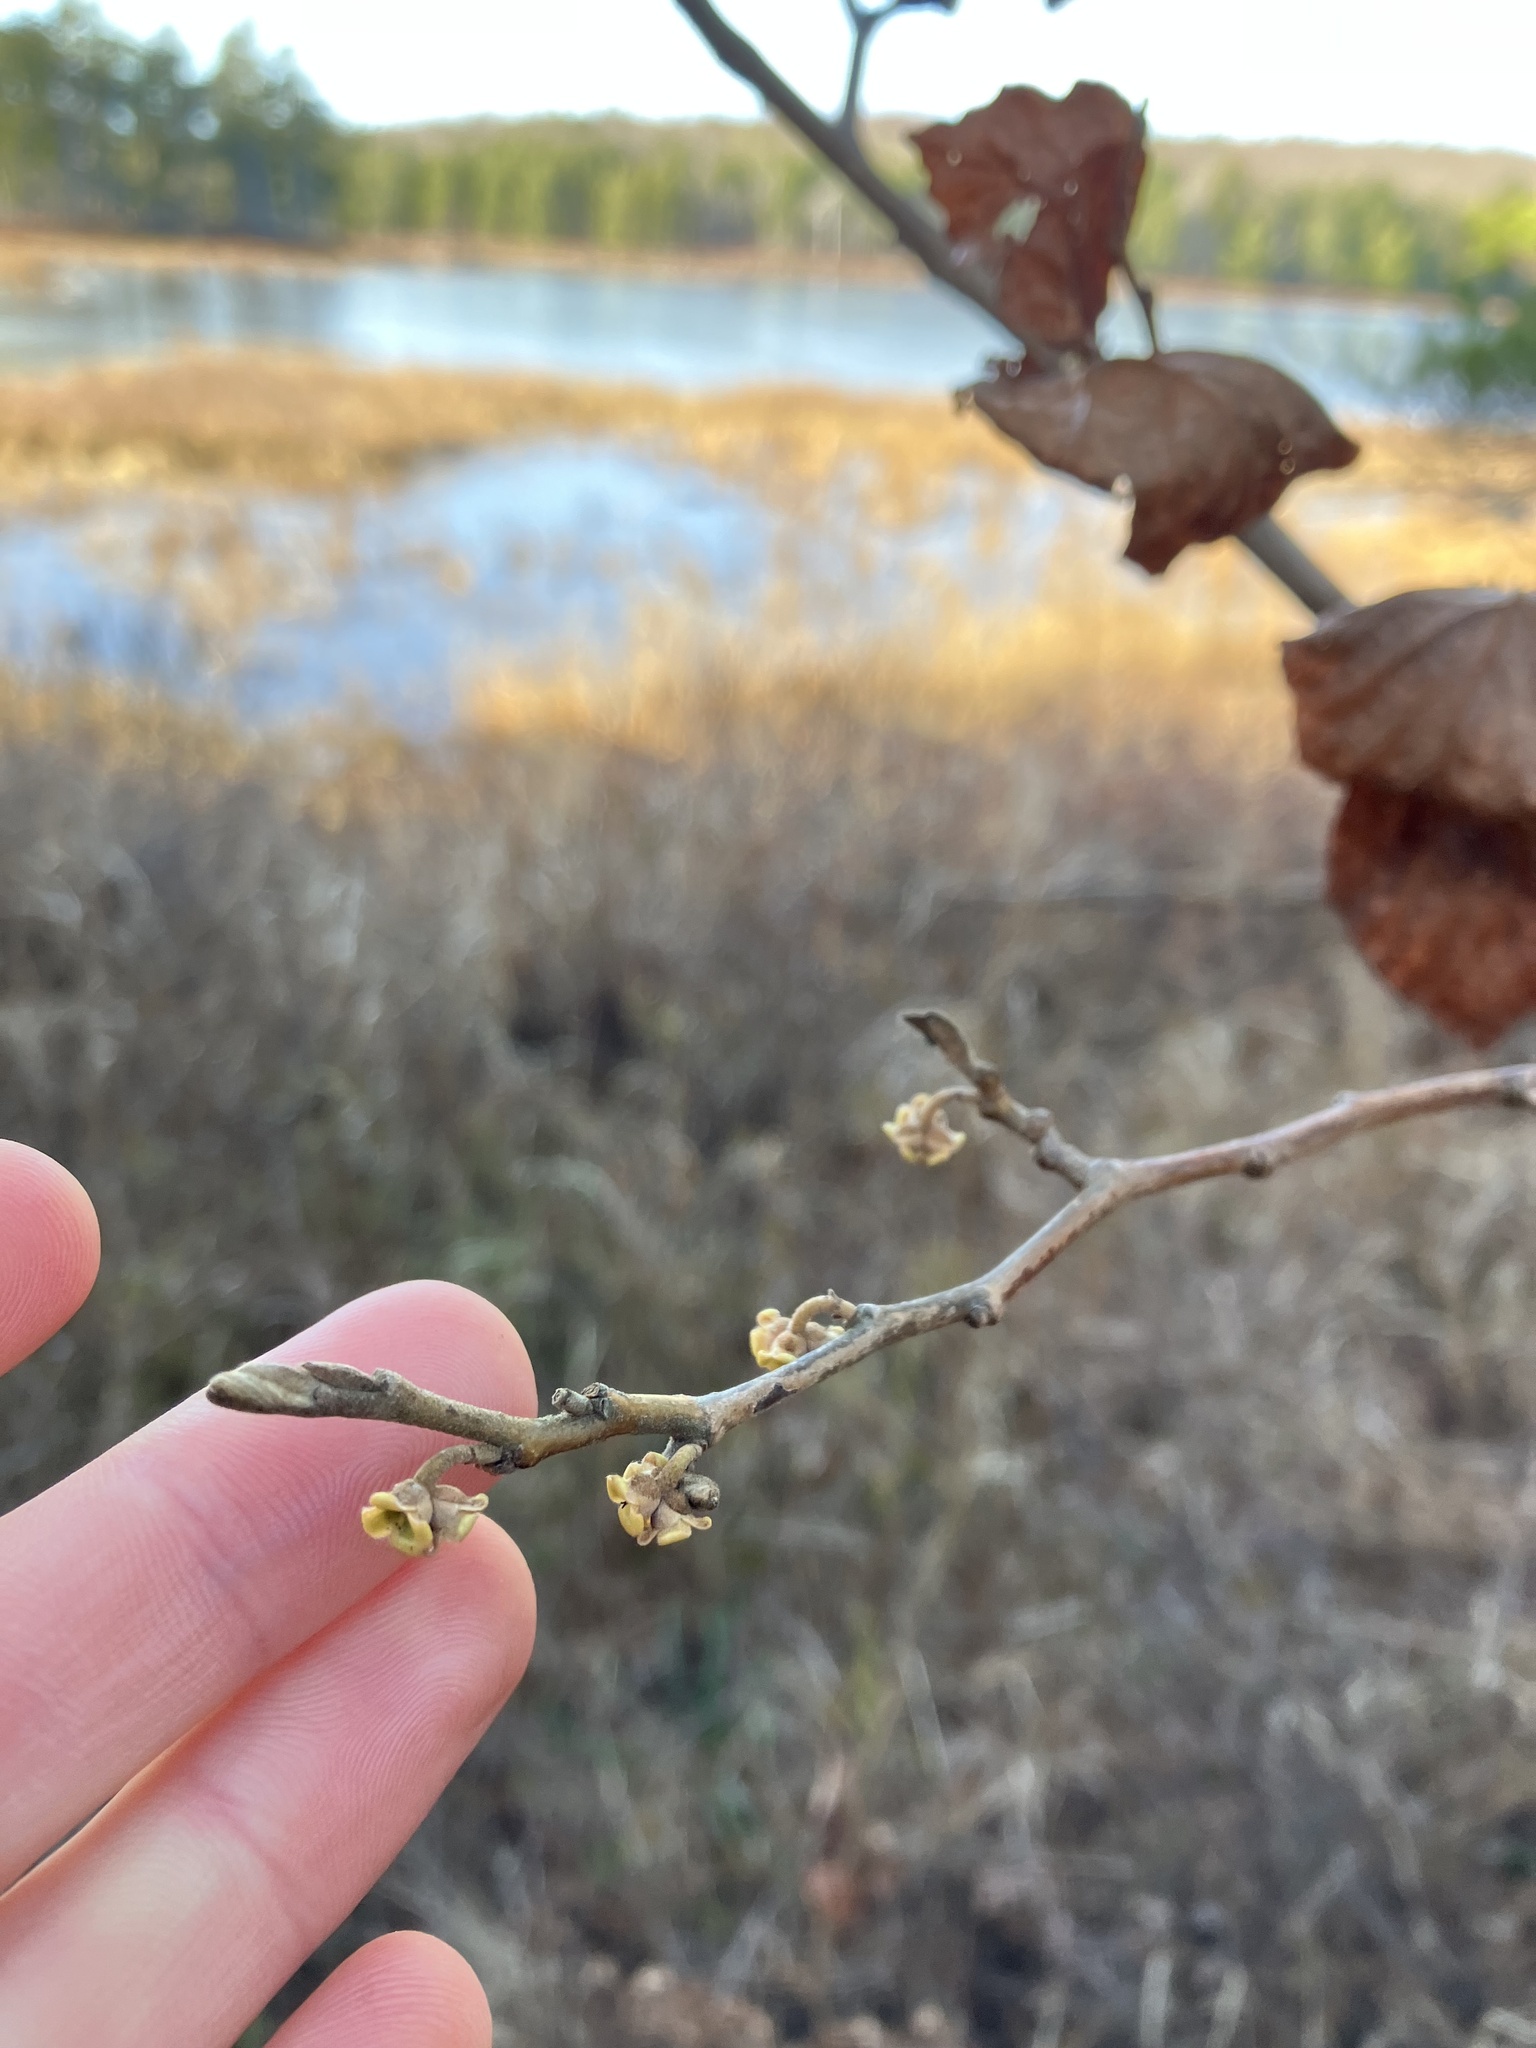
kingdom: Plantae
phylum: Tracheophyta
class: Magnoliopsida
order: Saxifragales
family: Hamamelidaceae
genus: Hamamelis
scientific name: Hamamelis virginiana
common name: Witch-hazel
